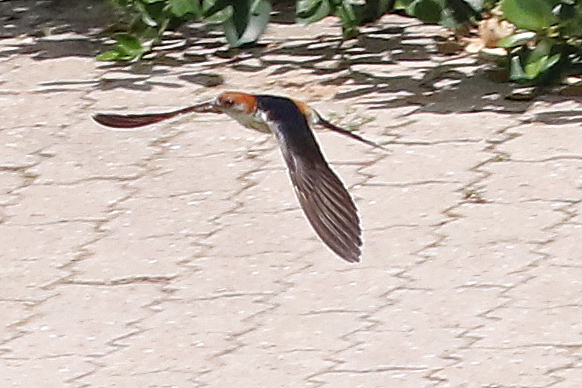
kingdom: Animalia
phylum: Chordata
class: Aves
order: Passeriformes
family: Hirundinidae
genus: Cecropis
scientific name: Cecropis cucullata
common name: Greater striped-swallow
